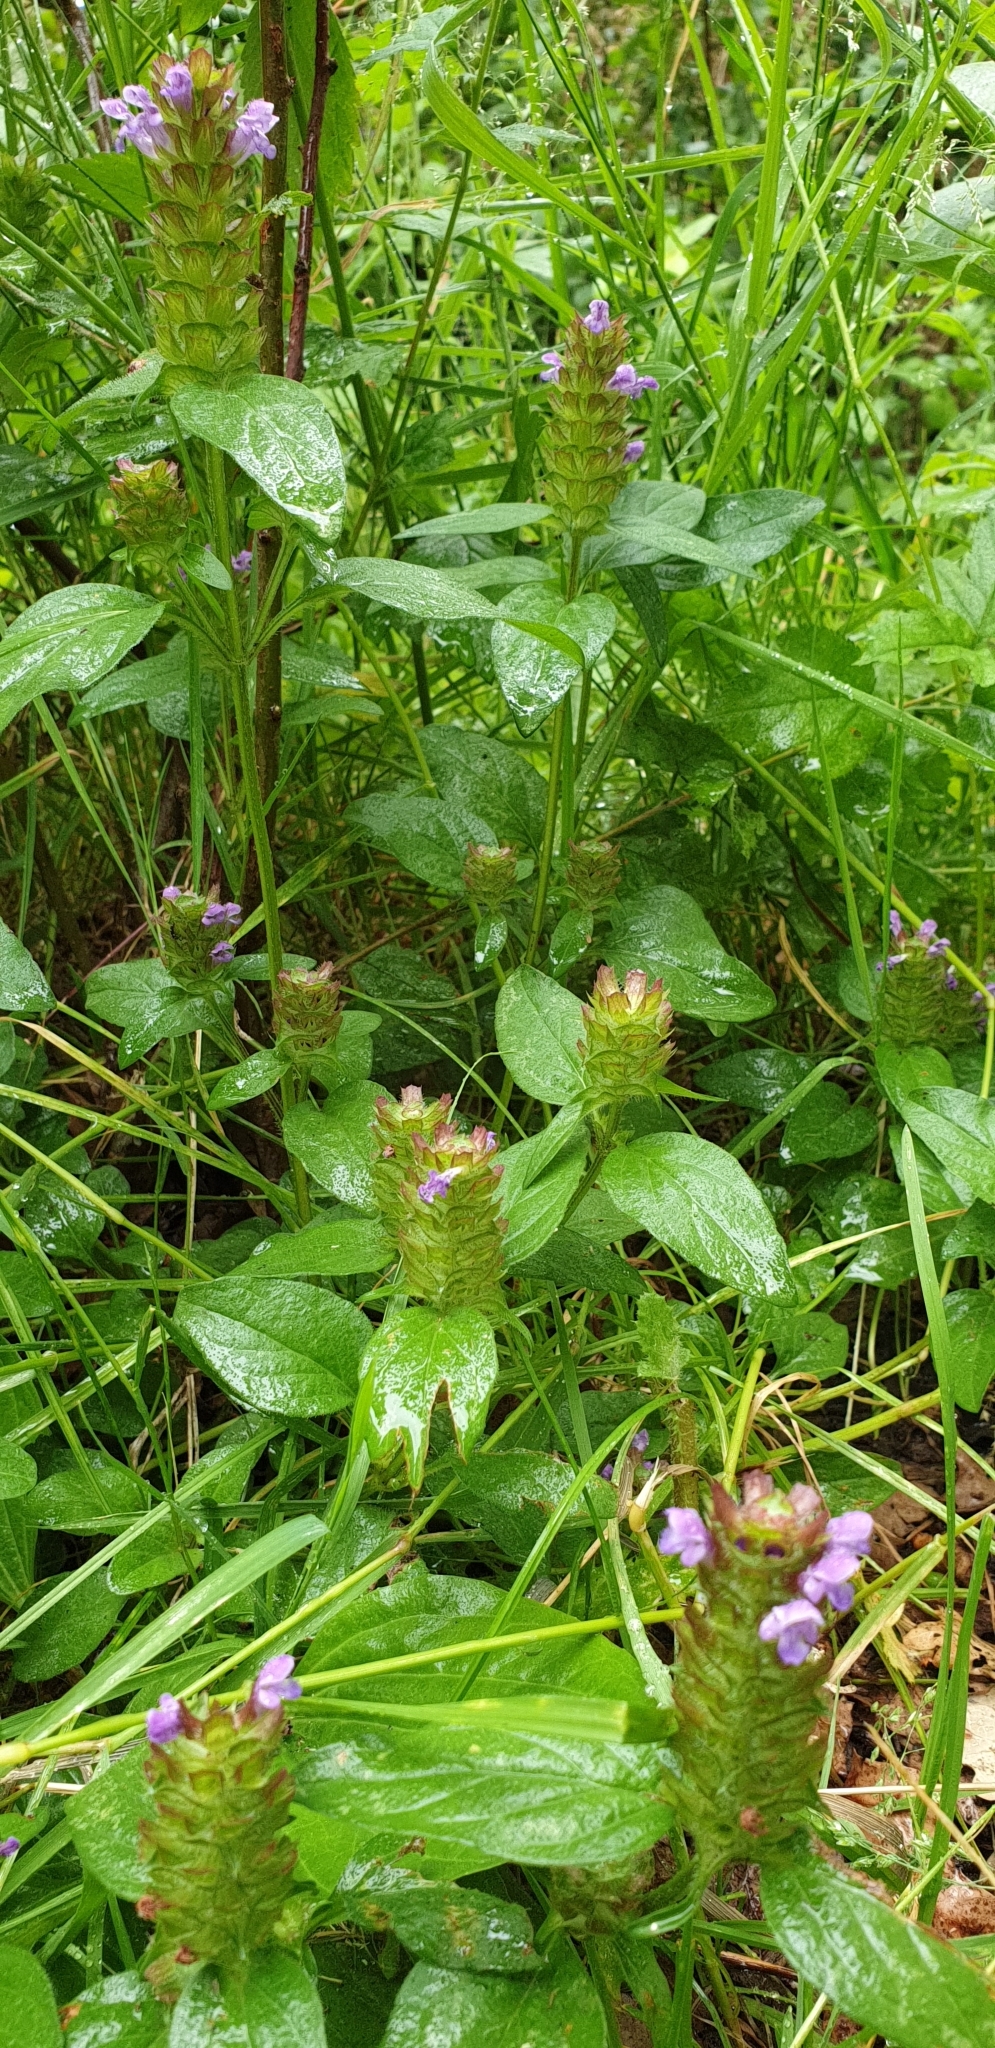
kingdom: Plantae
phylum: Tracheophyta
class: Magnoliopsida
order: Lamiales
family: Lamiaceae
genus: Prunella
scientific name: Prunella vulgaris
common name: Heal-all
